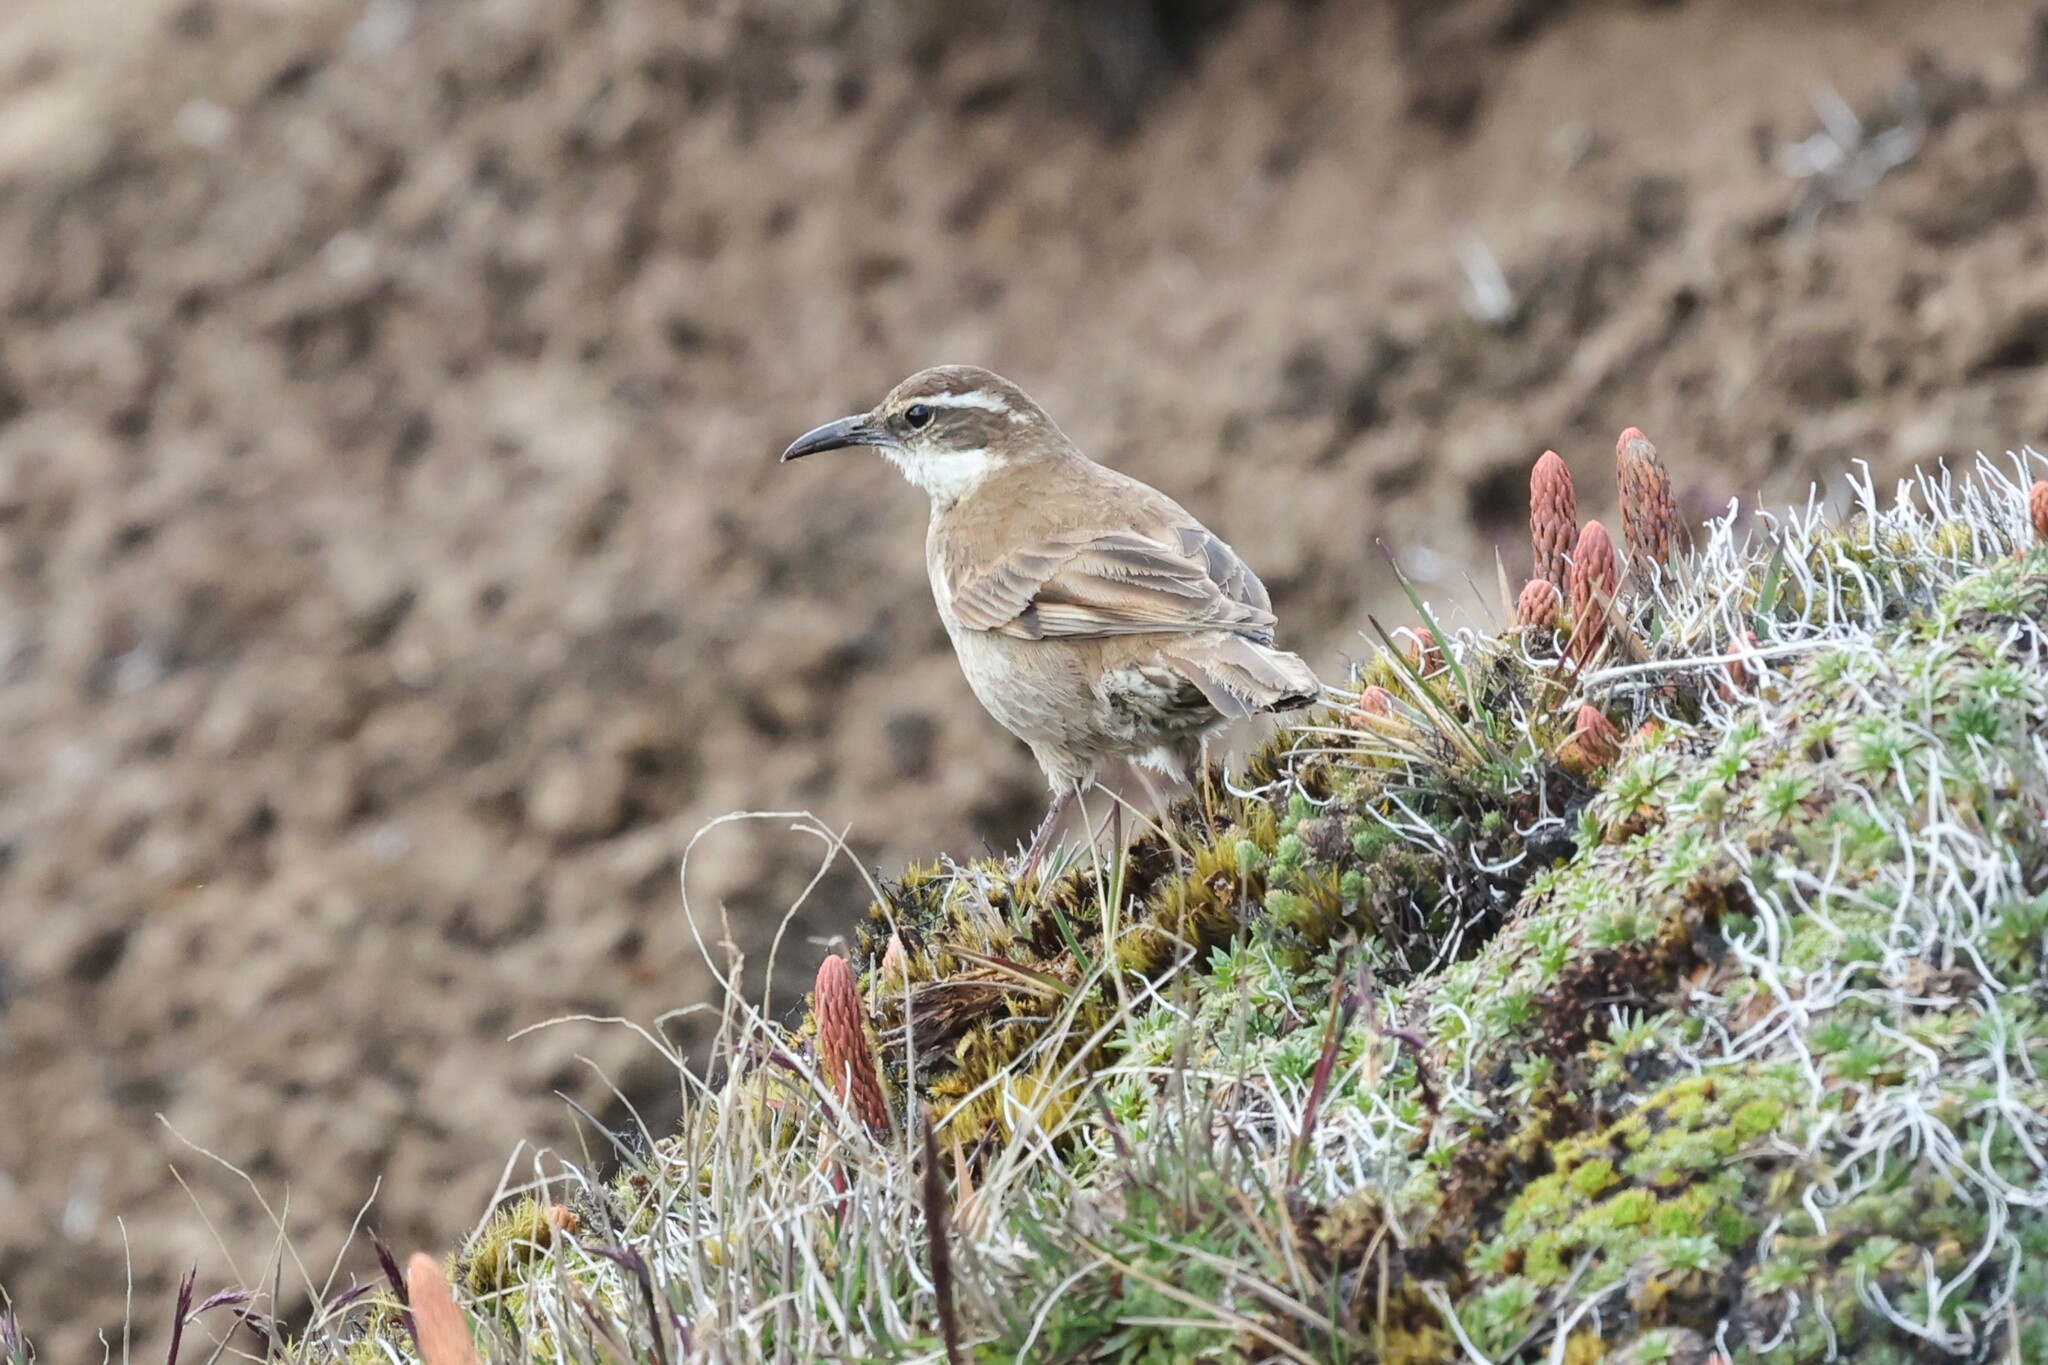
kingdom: Animalia
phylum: Chordata
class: Aves
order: Passeriformes
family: Furnariidae
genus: Cinclodes
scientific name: Cinclodes excelsior
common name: Stout-billed cinclodes
